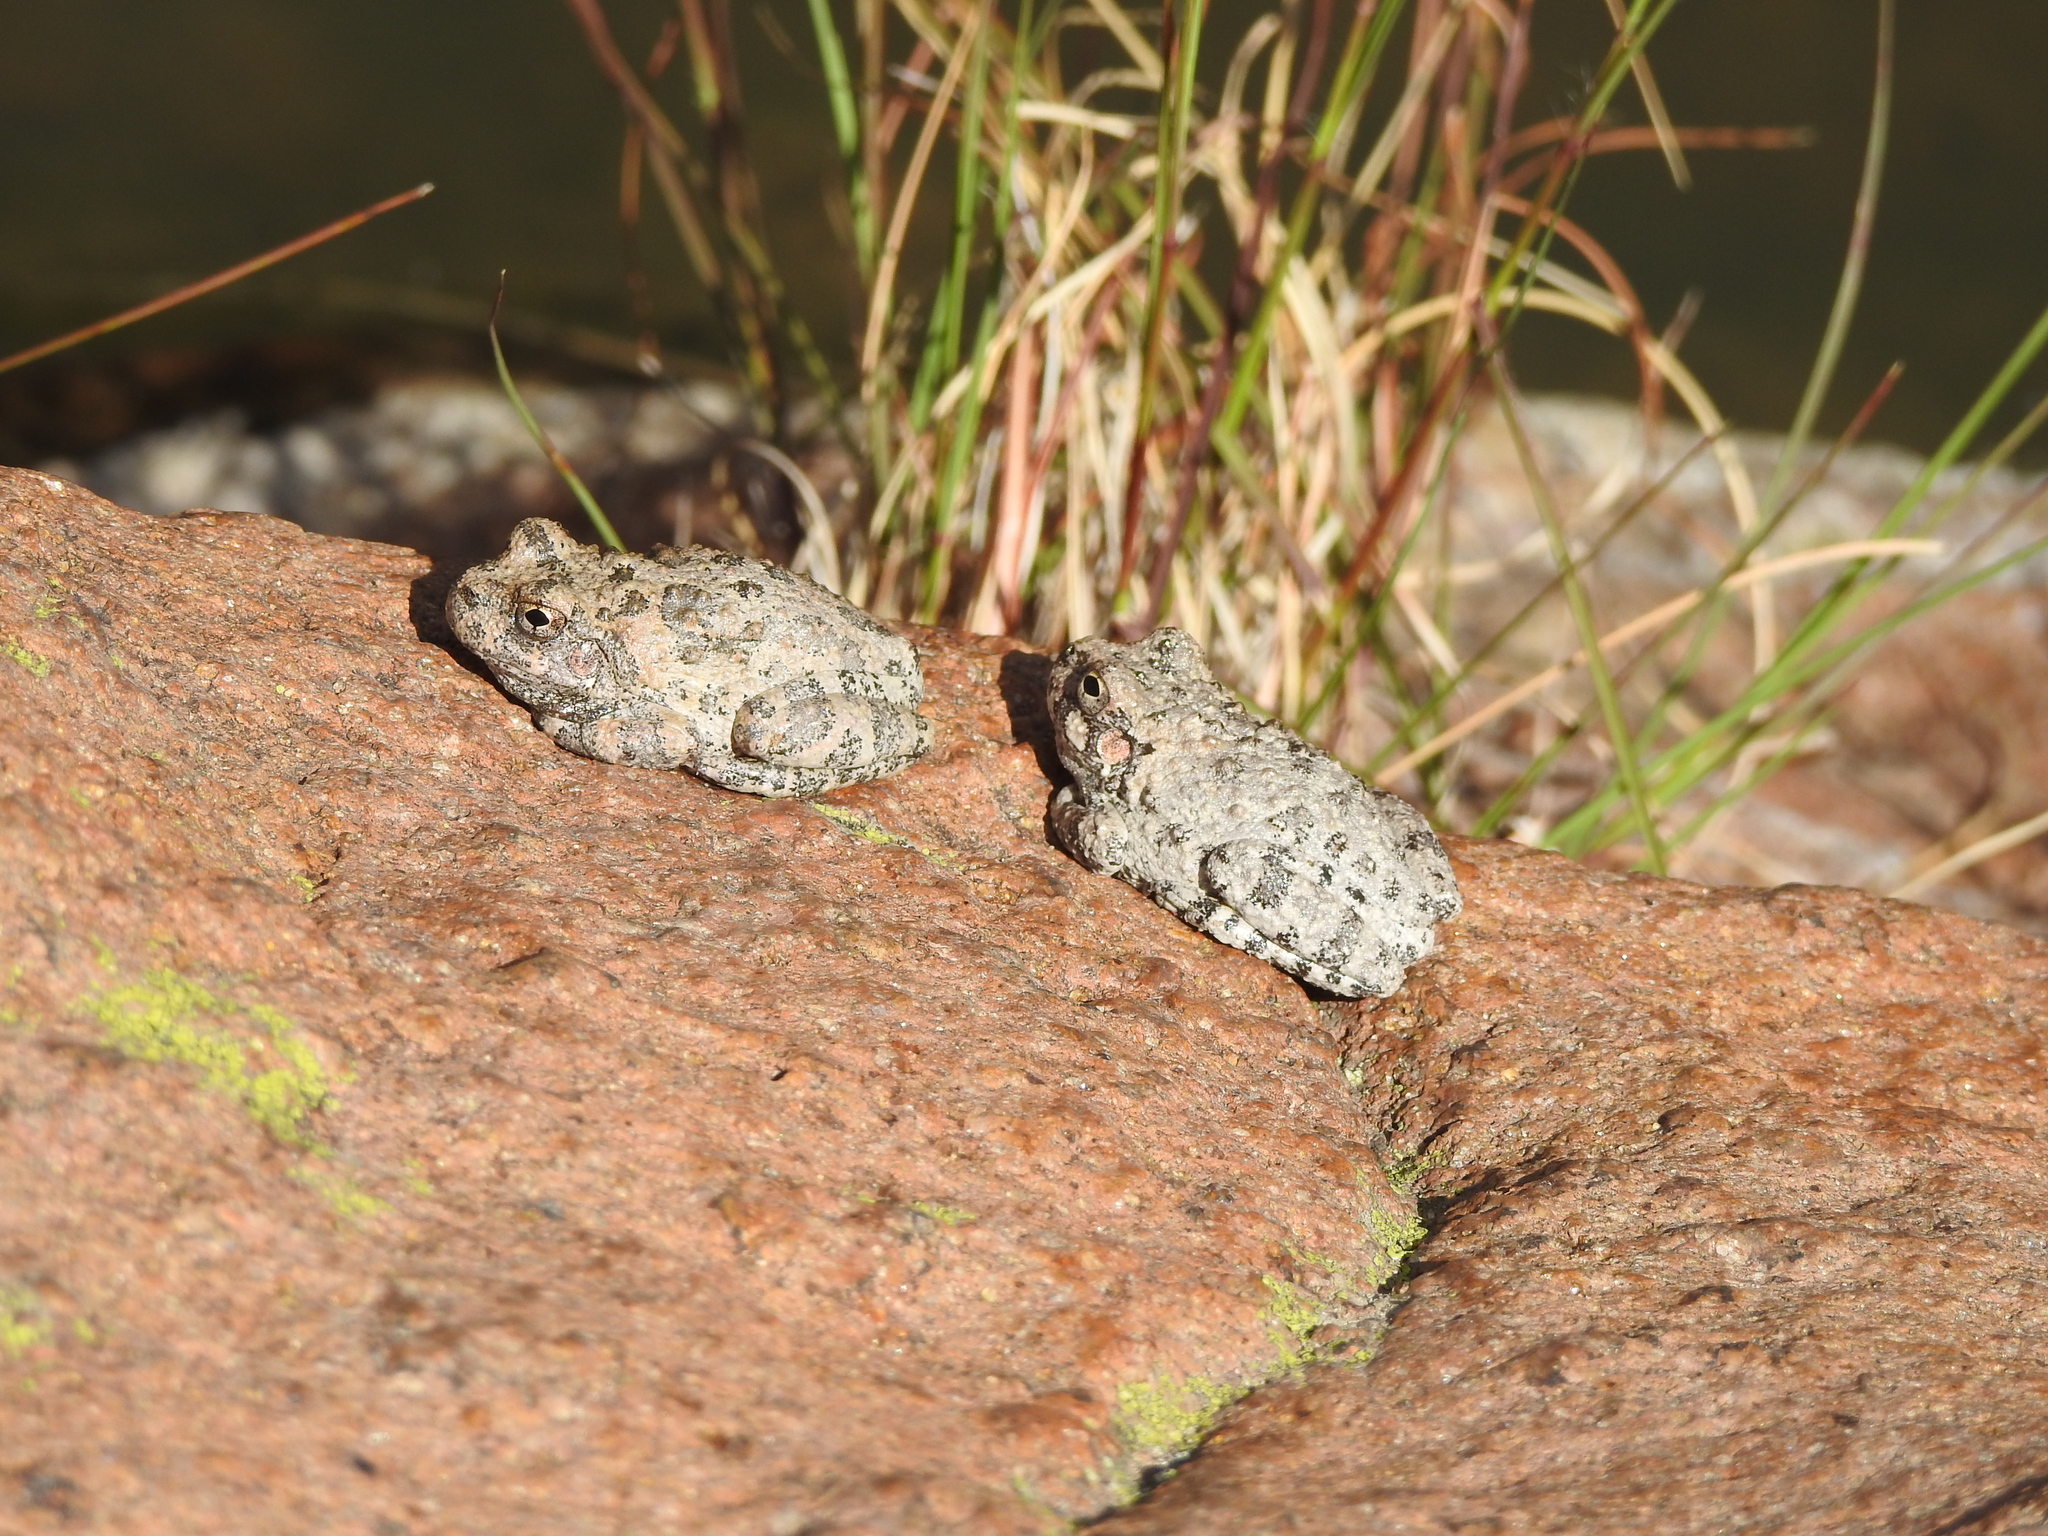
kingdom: Animalia
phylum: Chordata
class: Amphibia
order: Anura
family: Hylidae
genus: Dryophytes
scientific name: Dryophytes arenicolor
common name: Canyon treefrog
